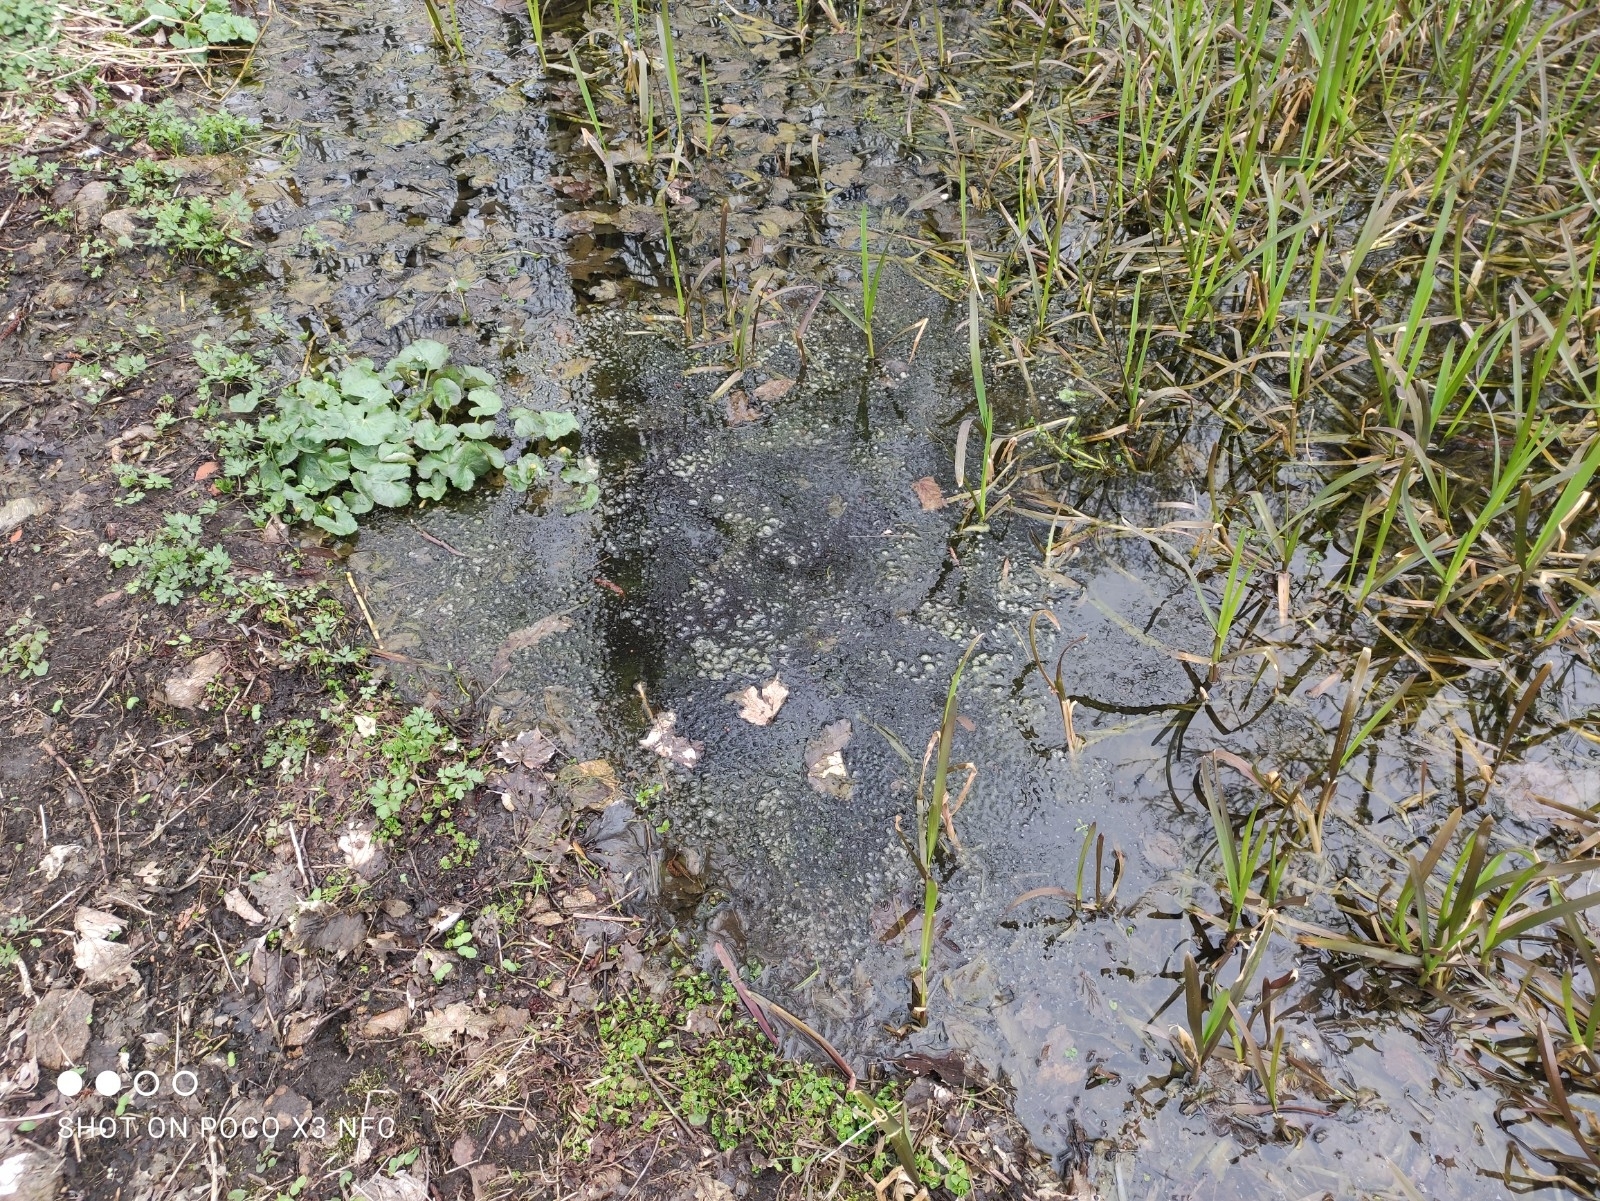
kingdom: Animalia
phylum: Chordata
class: Amphibia
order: Anura
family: Ranidae
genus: Rana
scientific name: Rana temporaria
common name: Common frog
